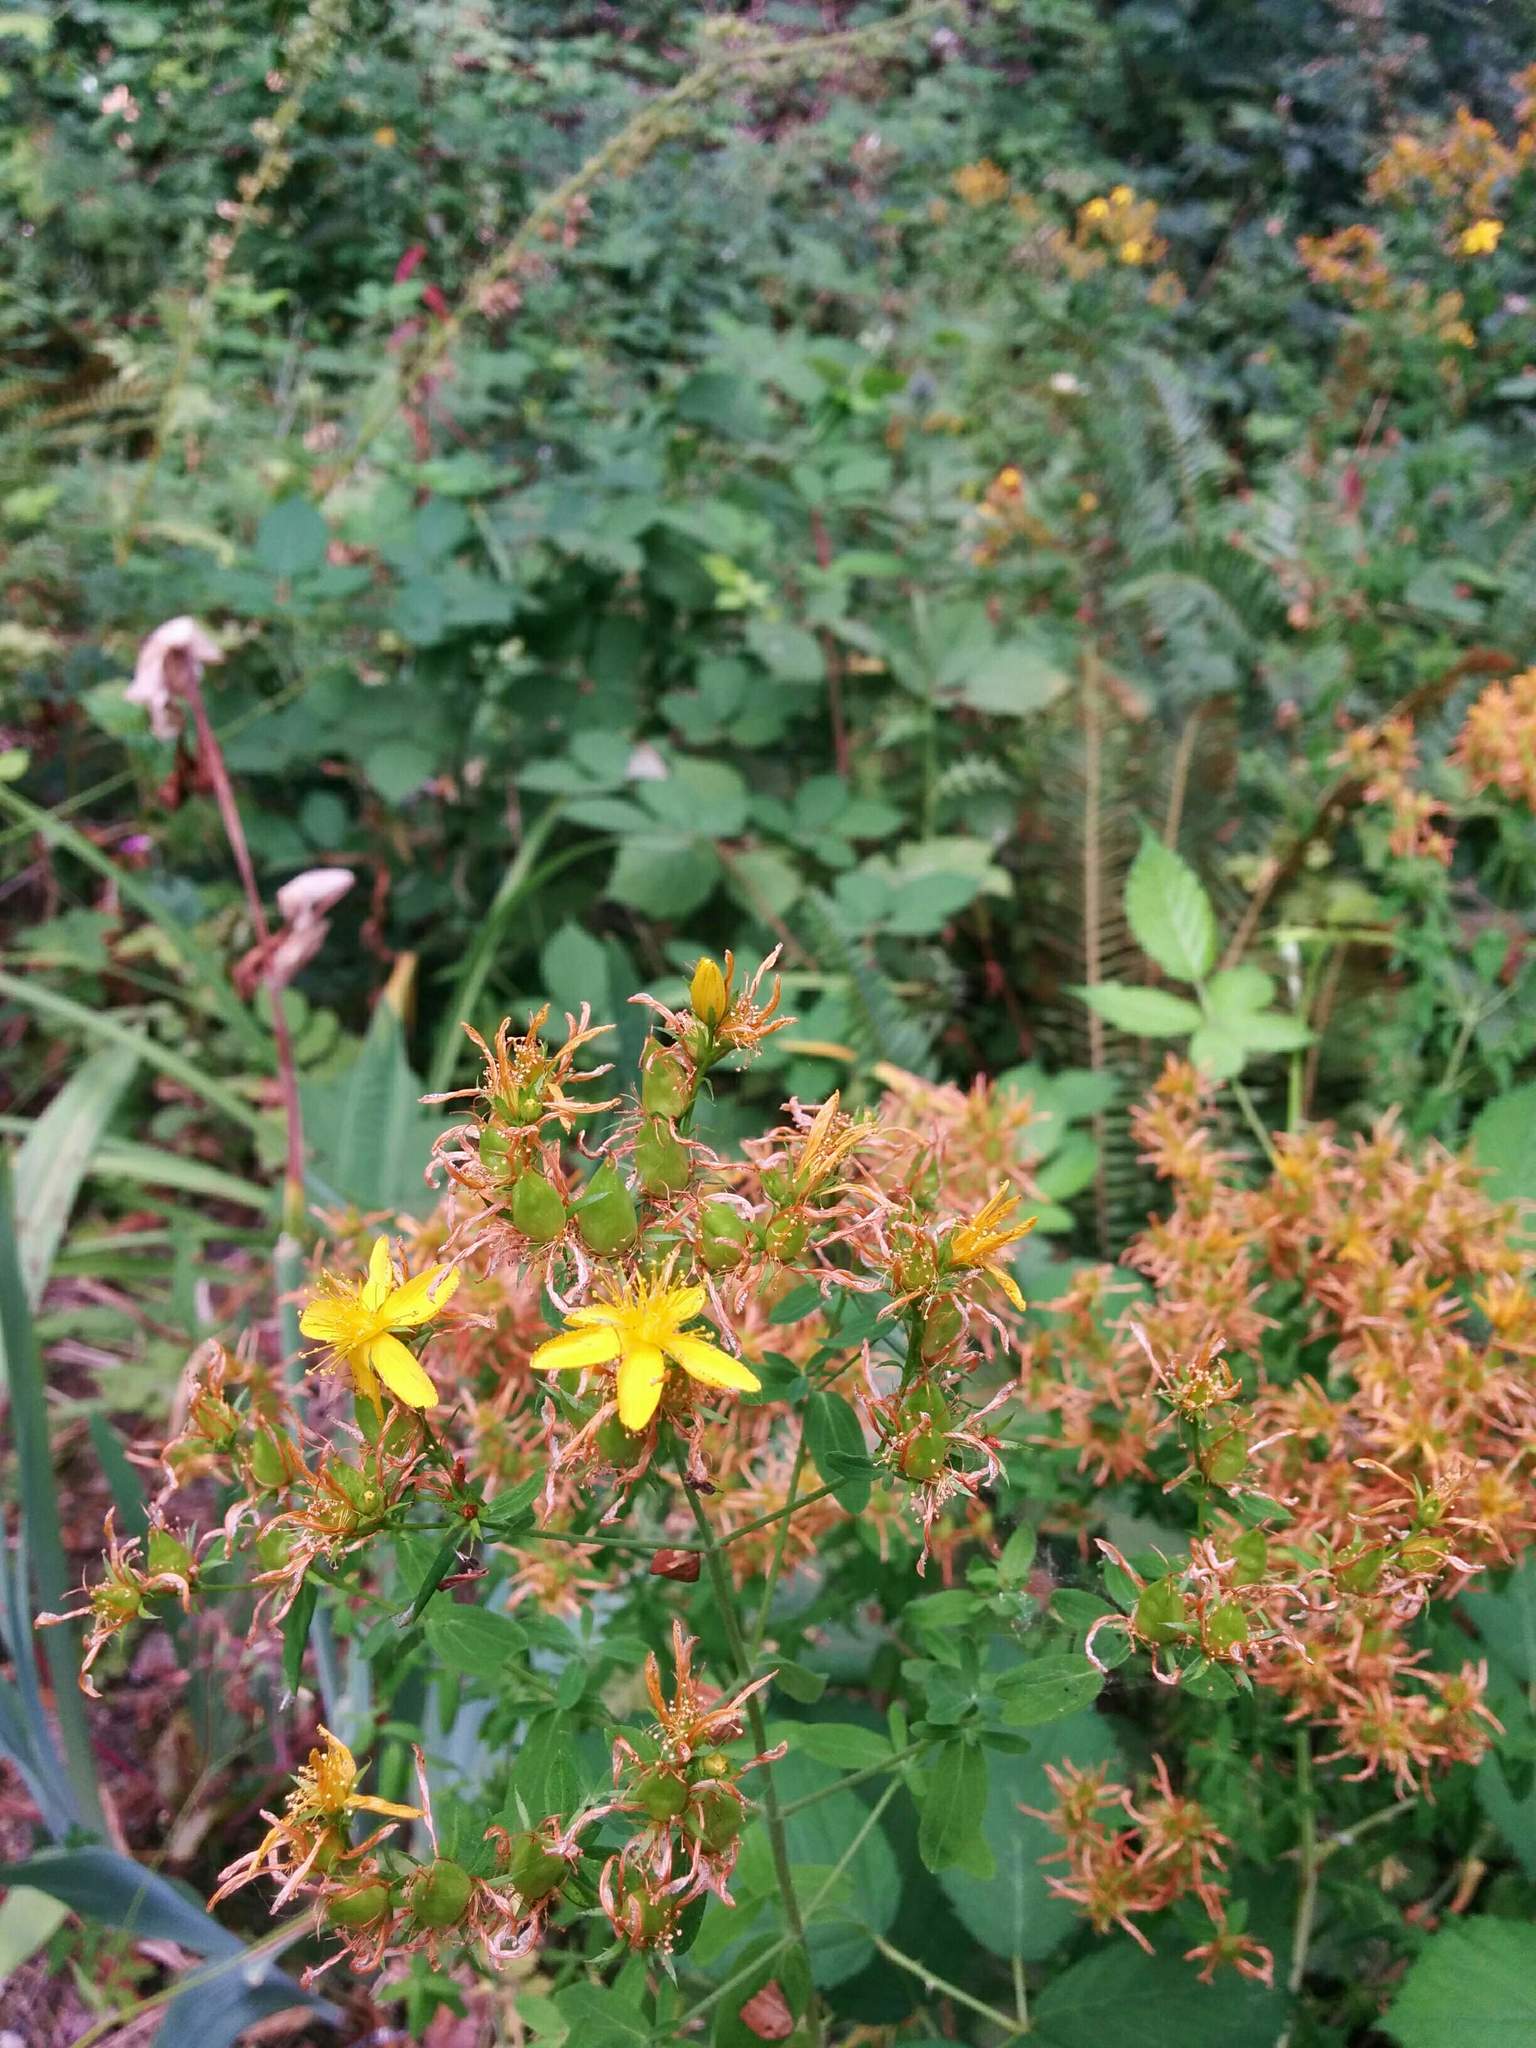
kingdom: Plantae
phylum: Tracheophyta
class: Magnoliopsida
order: Malpighiales
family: Hypericaceae
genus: Hypericum
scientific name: Hypericum perforatum
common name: Common st. johnswort
